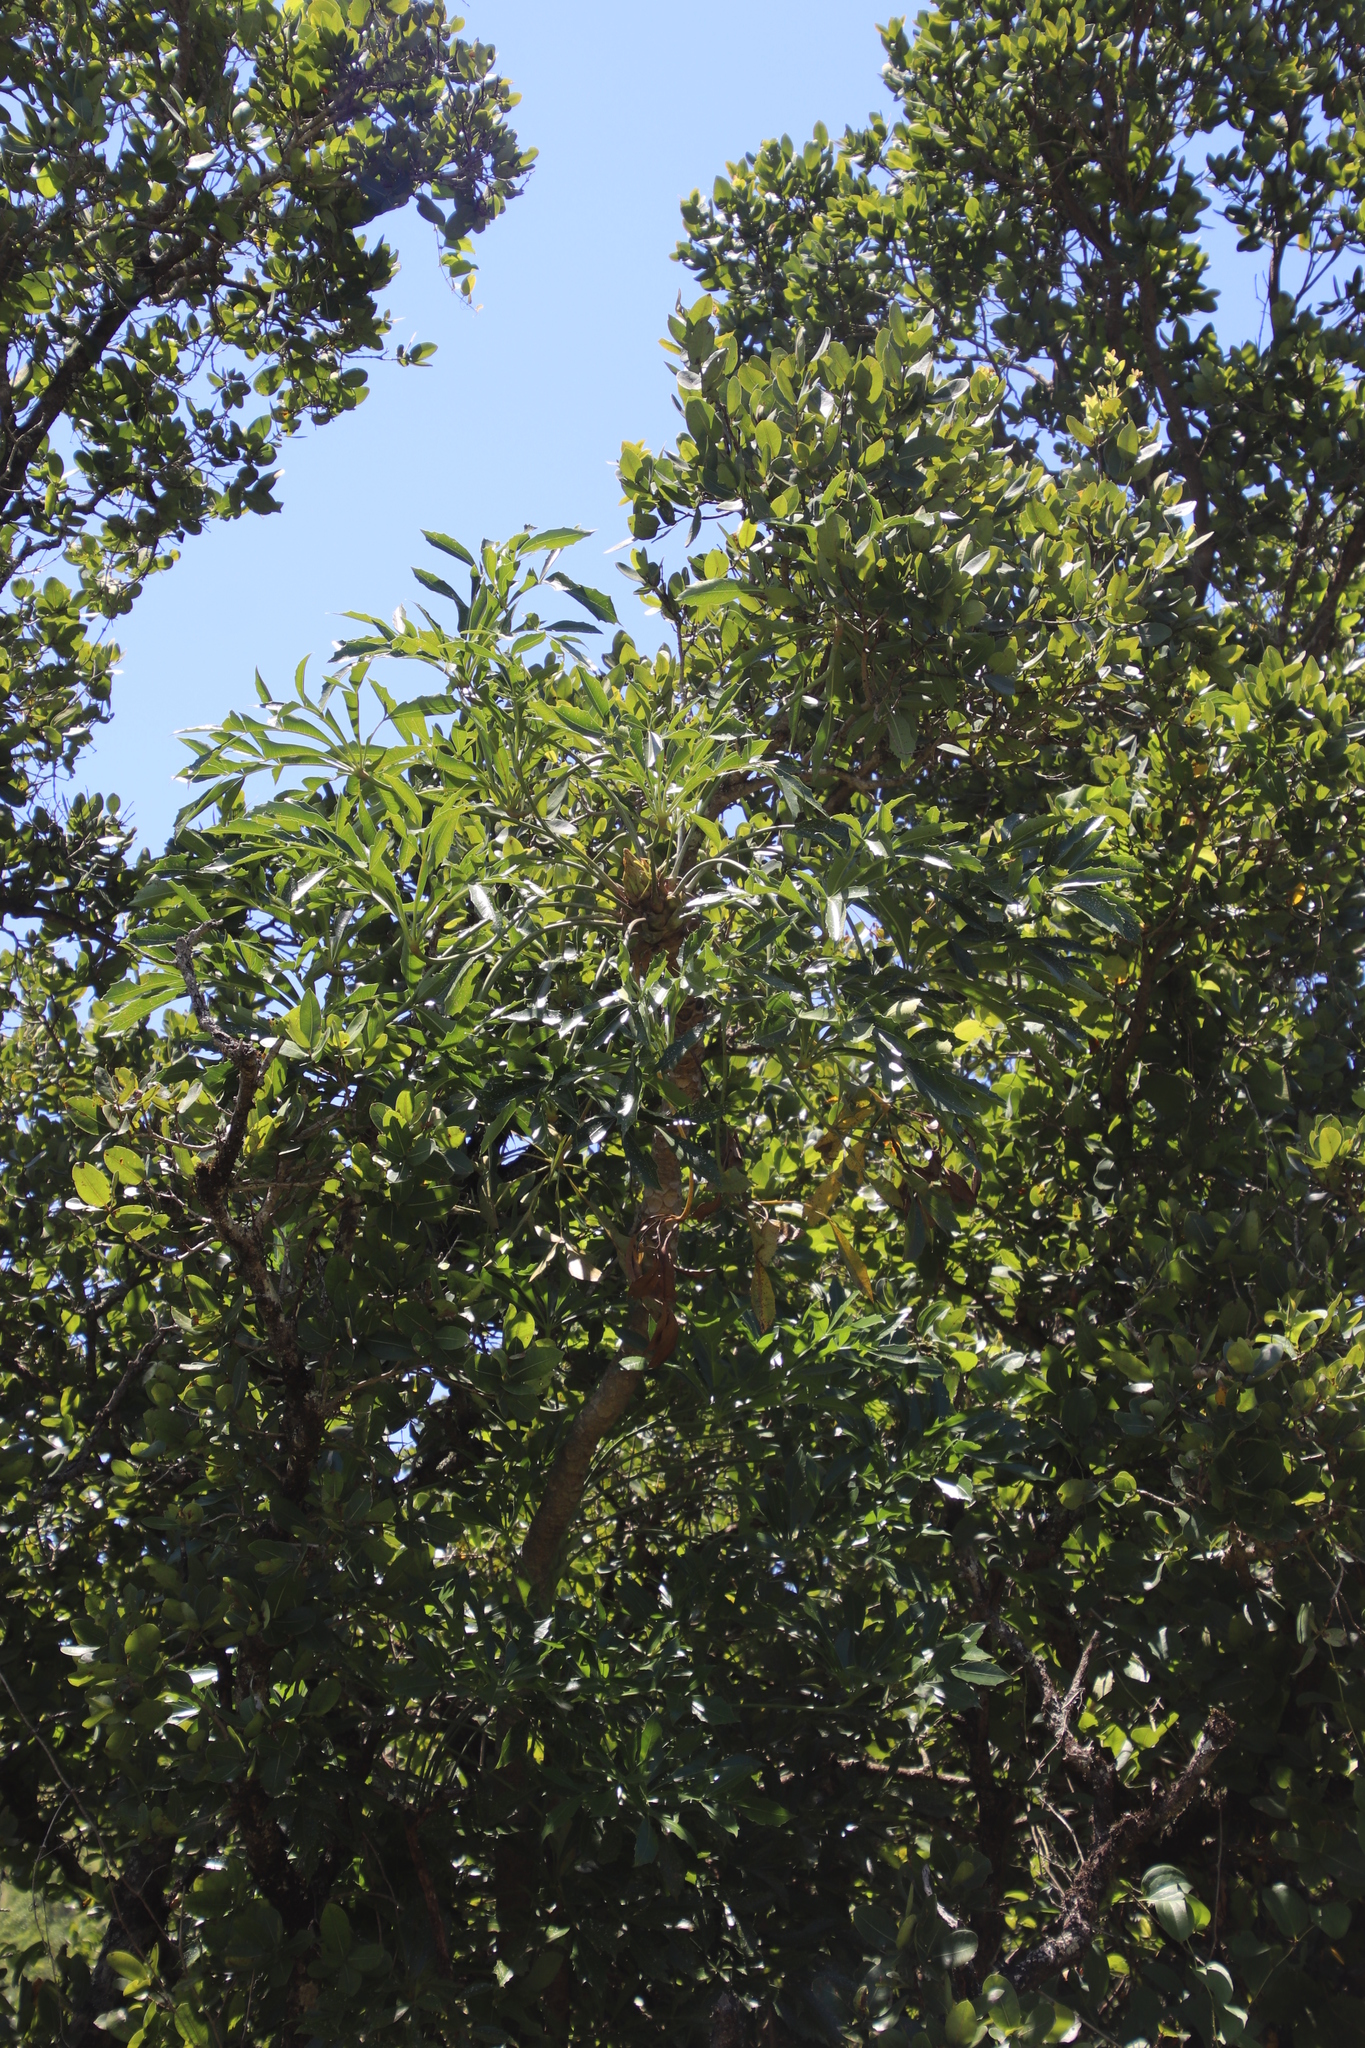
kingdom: Plantae
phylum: Tracheophyta
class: Magnoliopsida
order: Apiales
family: Araliaceae
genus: Cussonia
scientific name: Cussonia spicata
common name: Common cabbagetree
